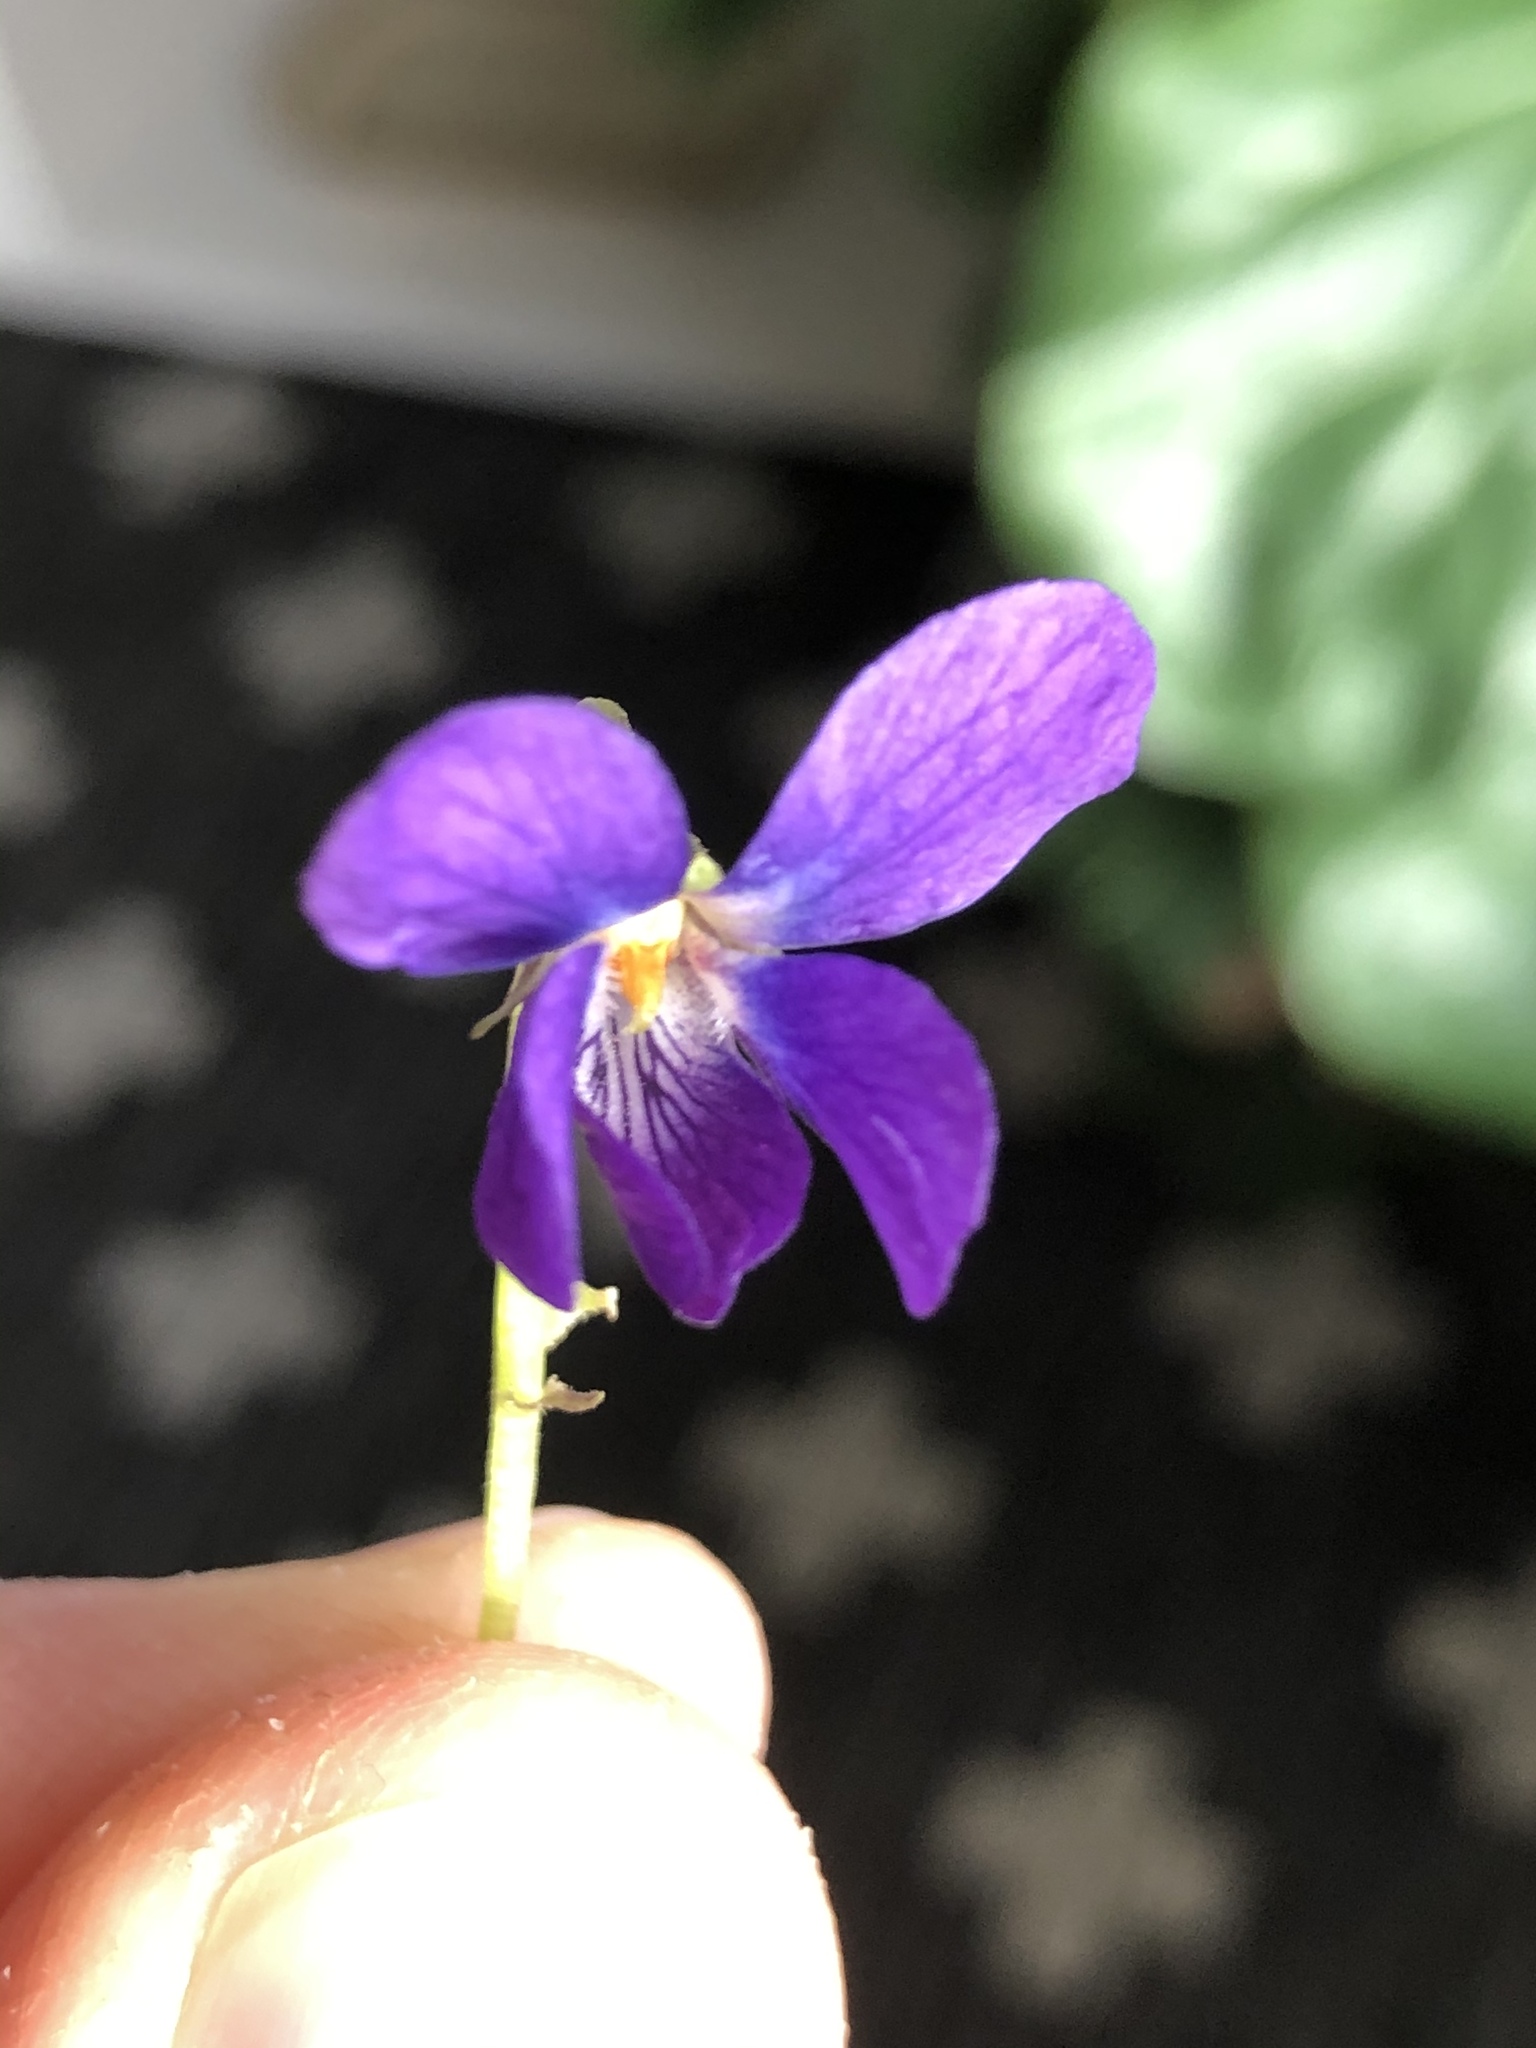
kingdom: Plantae
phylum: Tracheophyta
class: Magnoliopsida
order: Malpighiales
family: Violaceae
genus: Viola
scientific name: Viola odorata
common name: Sweet violet
